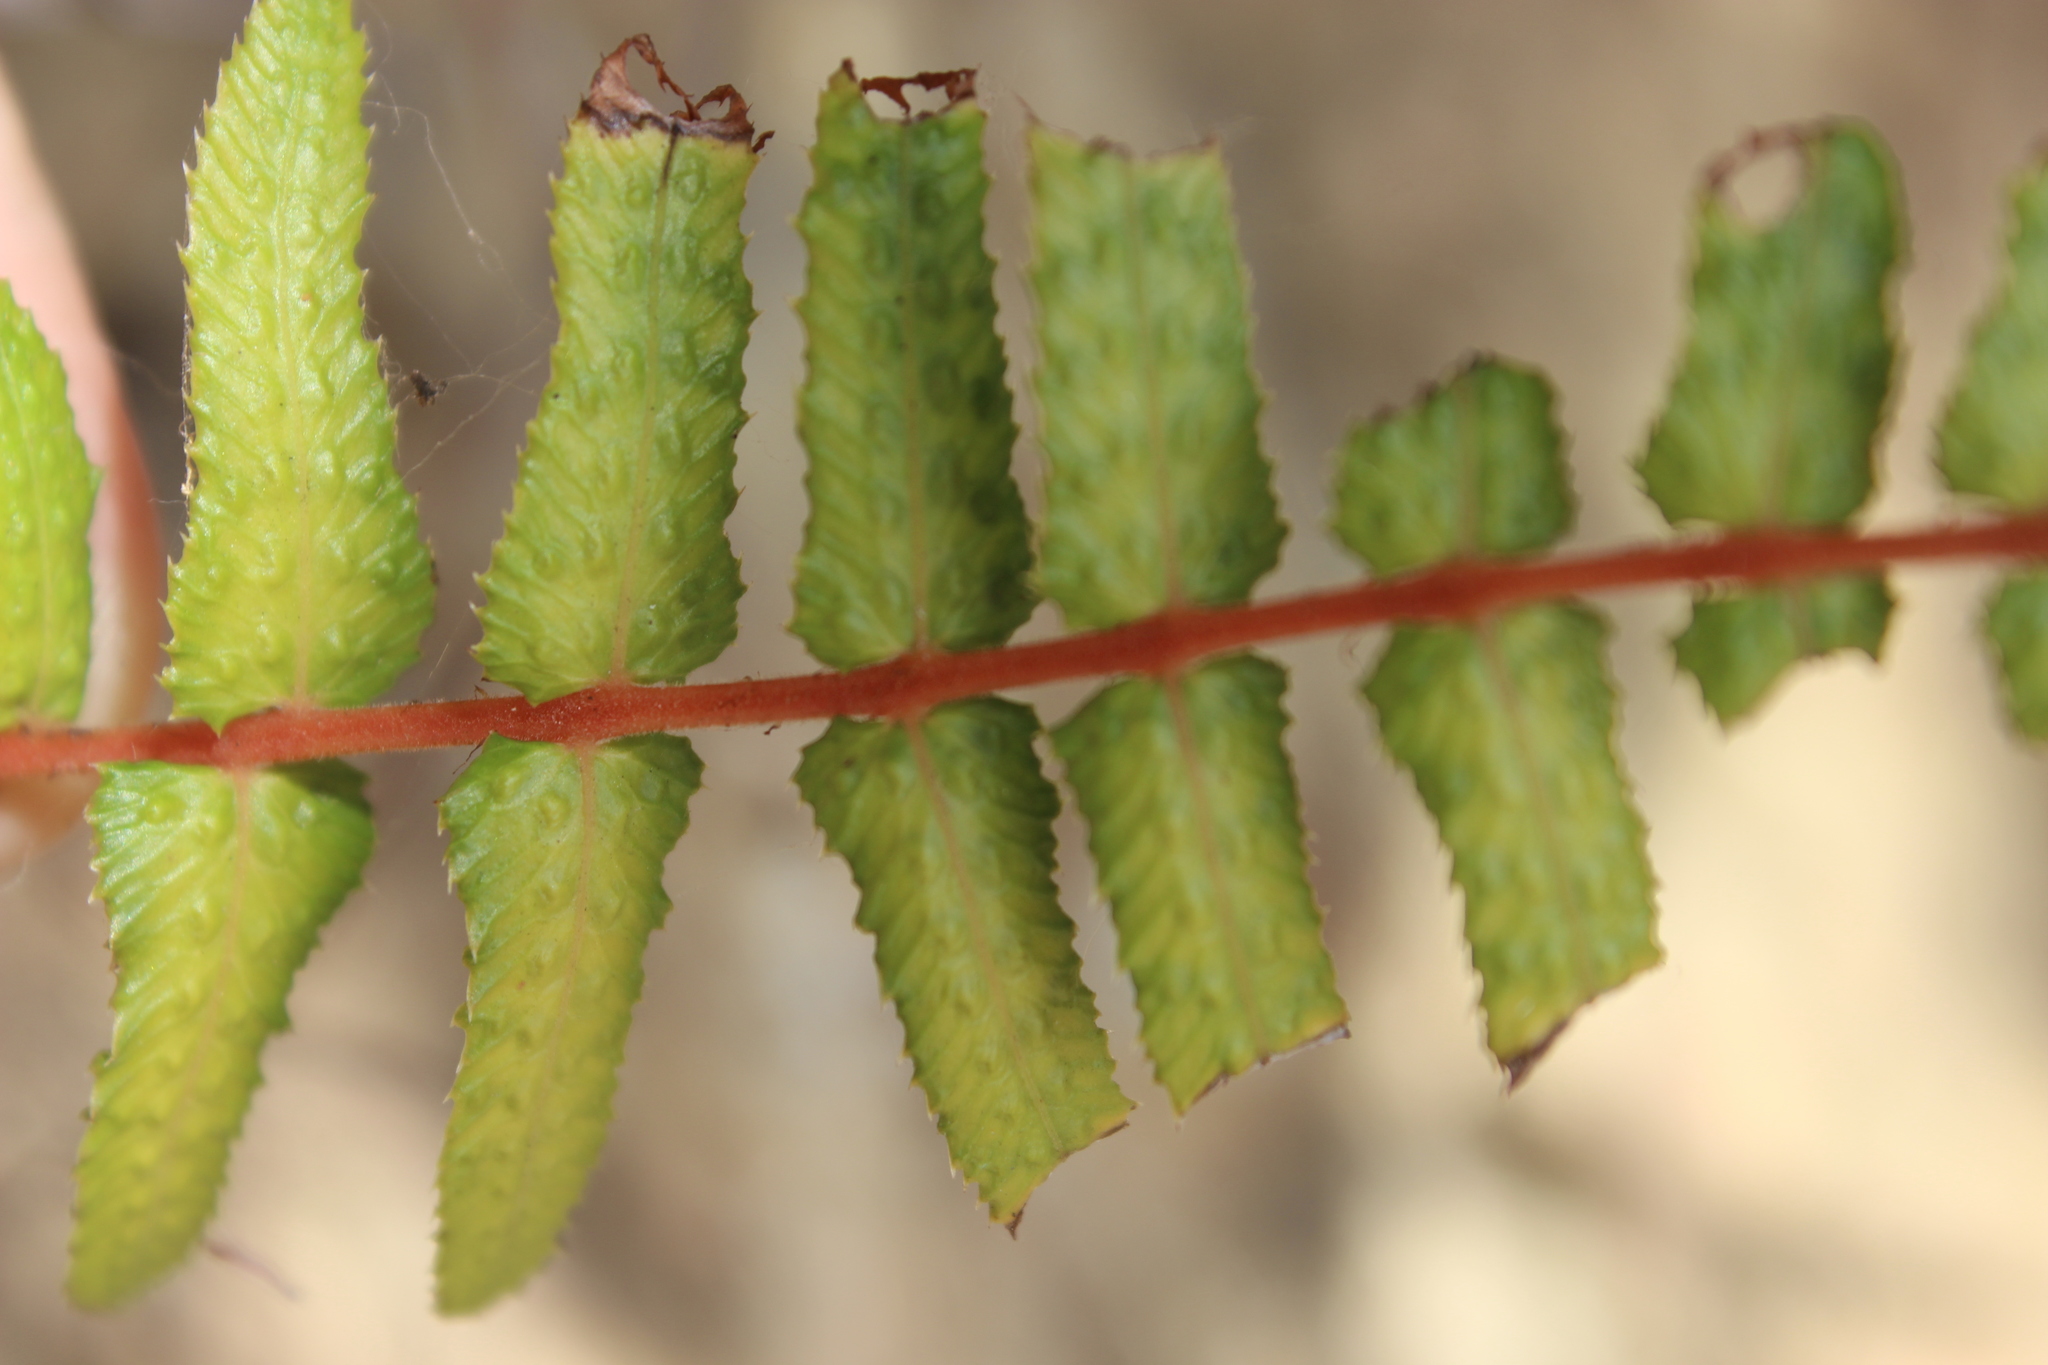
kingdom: Plantae
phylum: Tracheophyta
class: Polypodiopsida
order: Polypodiales
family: Blechnaceae
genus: Doodia
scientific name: Doodia australis
